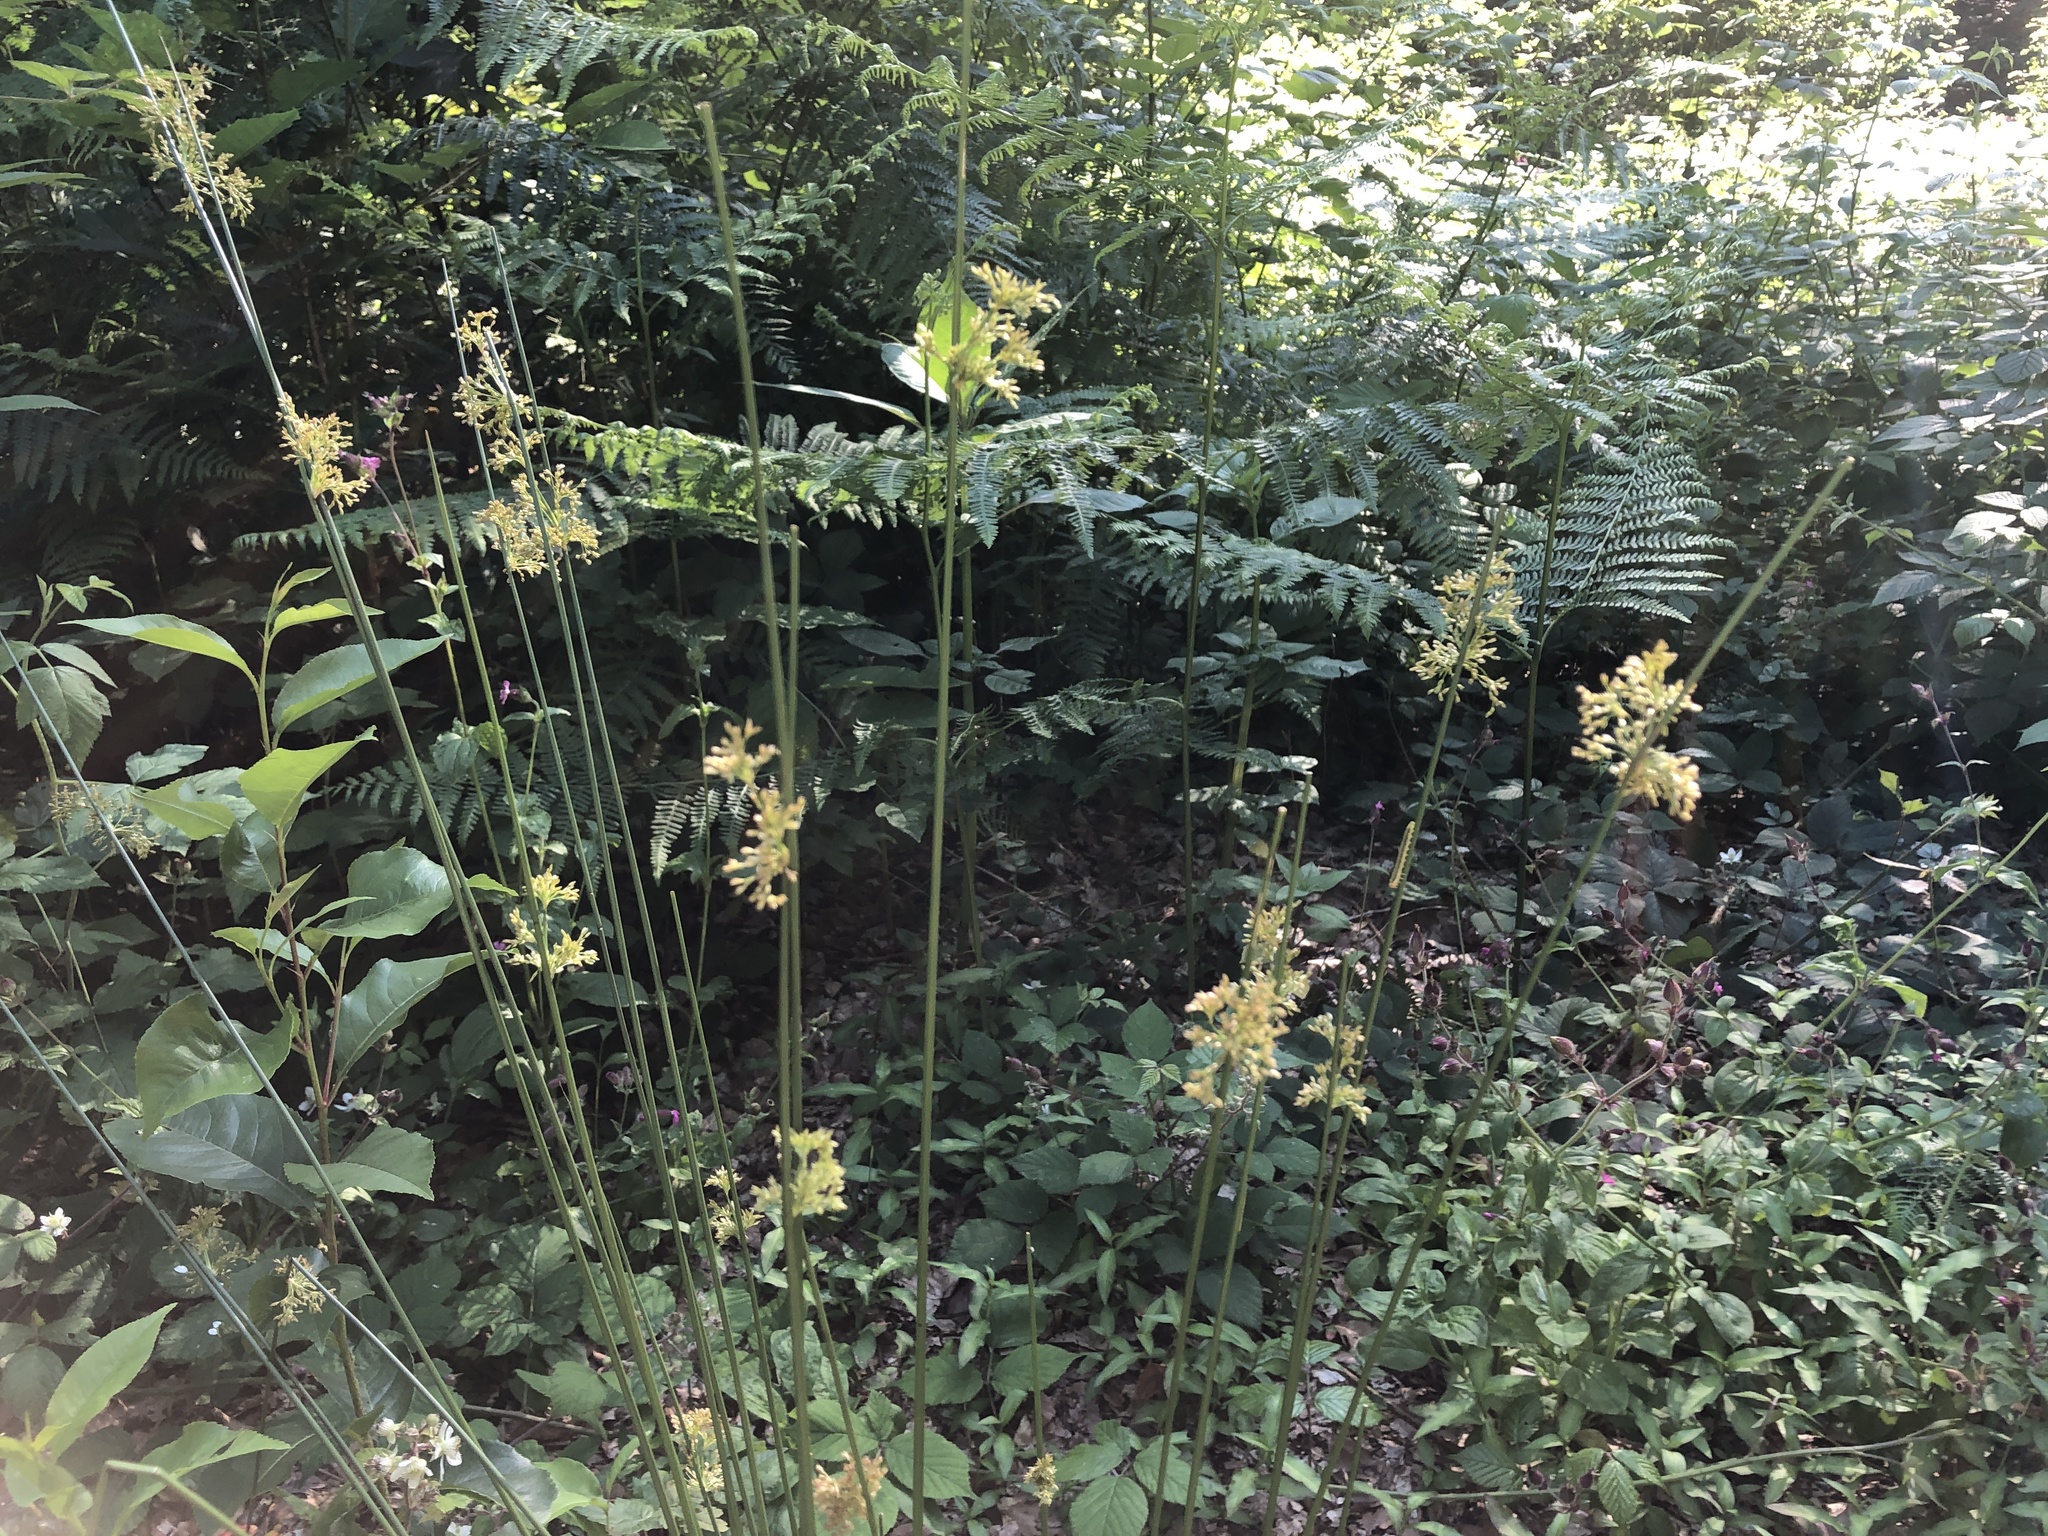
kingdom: Plantae
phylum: Tracheophyta
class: Liliopsida
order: Poales
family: Juncaceae
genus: Juncus
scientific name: Juncus effusus
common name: Soft rush
